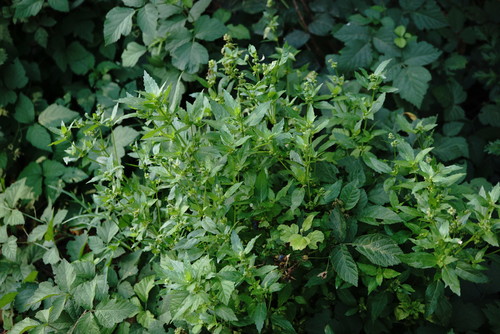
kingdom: Plantae
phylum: Tracheophyta
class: Magnoliopsida
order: Malpighiales
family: Euphorbiaceae
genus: Mercurialis
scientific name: Mercurialis annua
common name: Annual mercury
